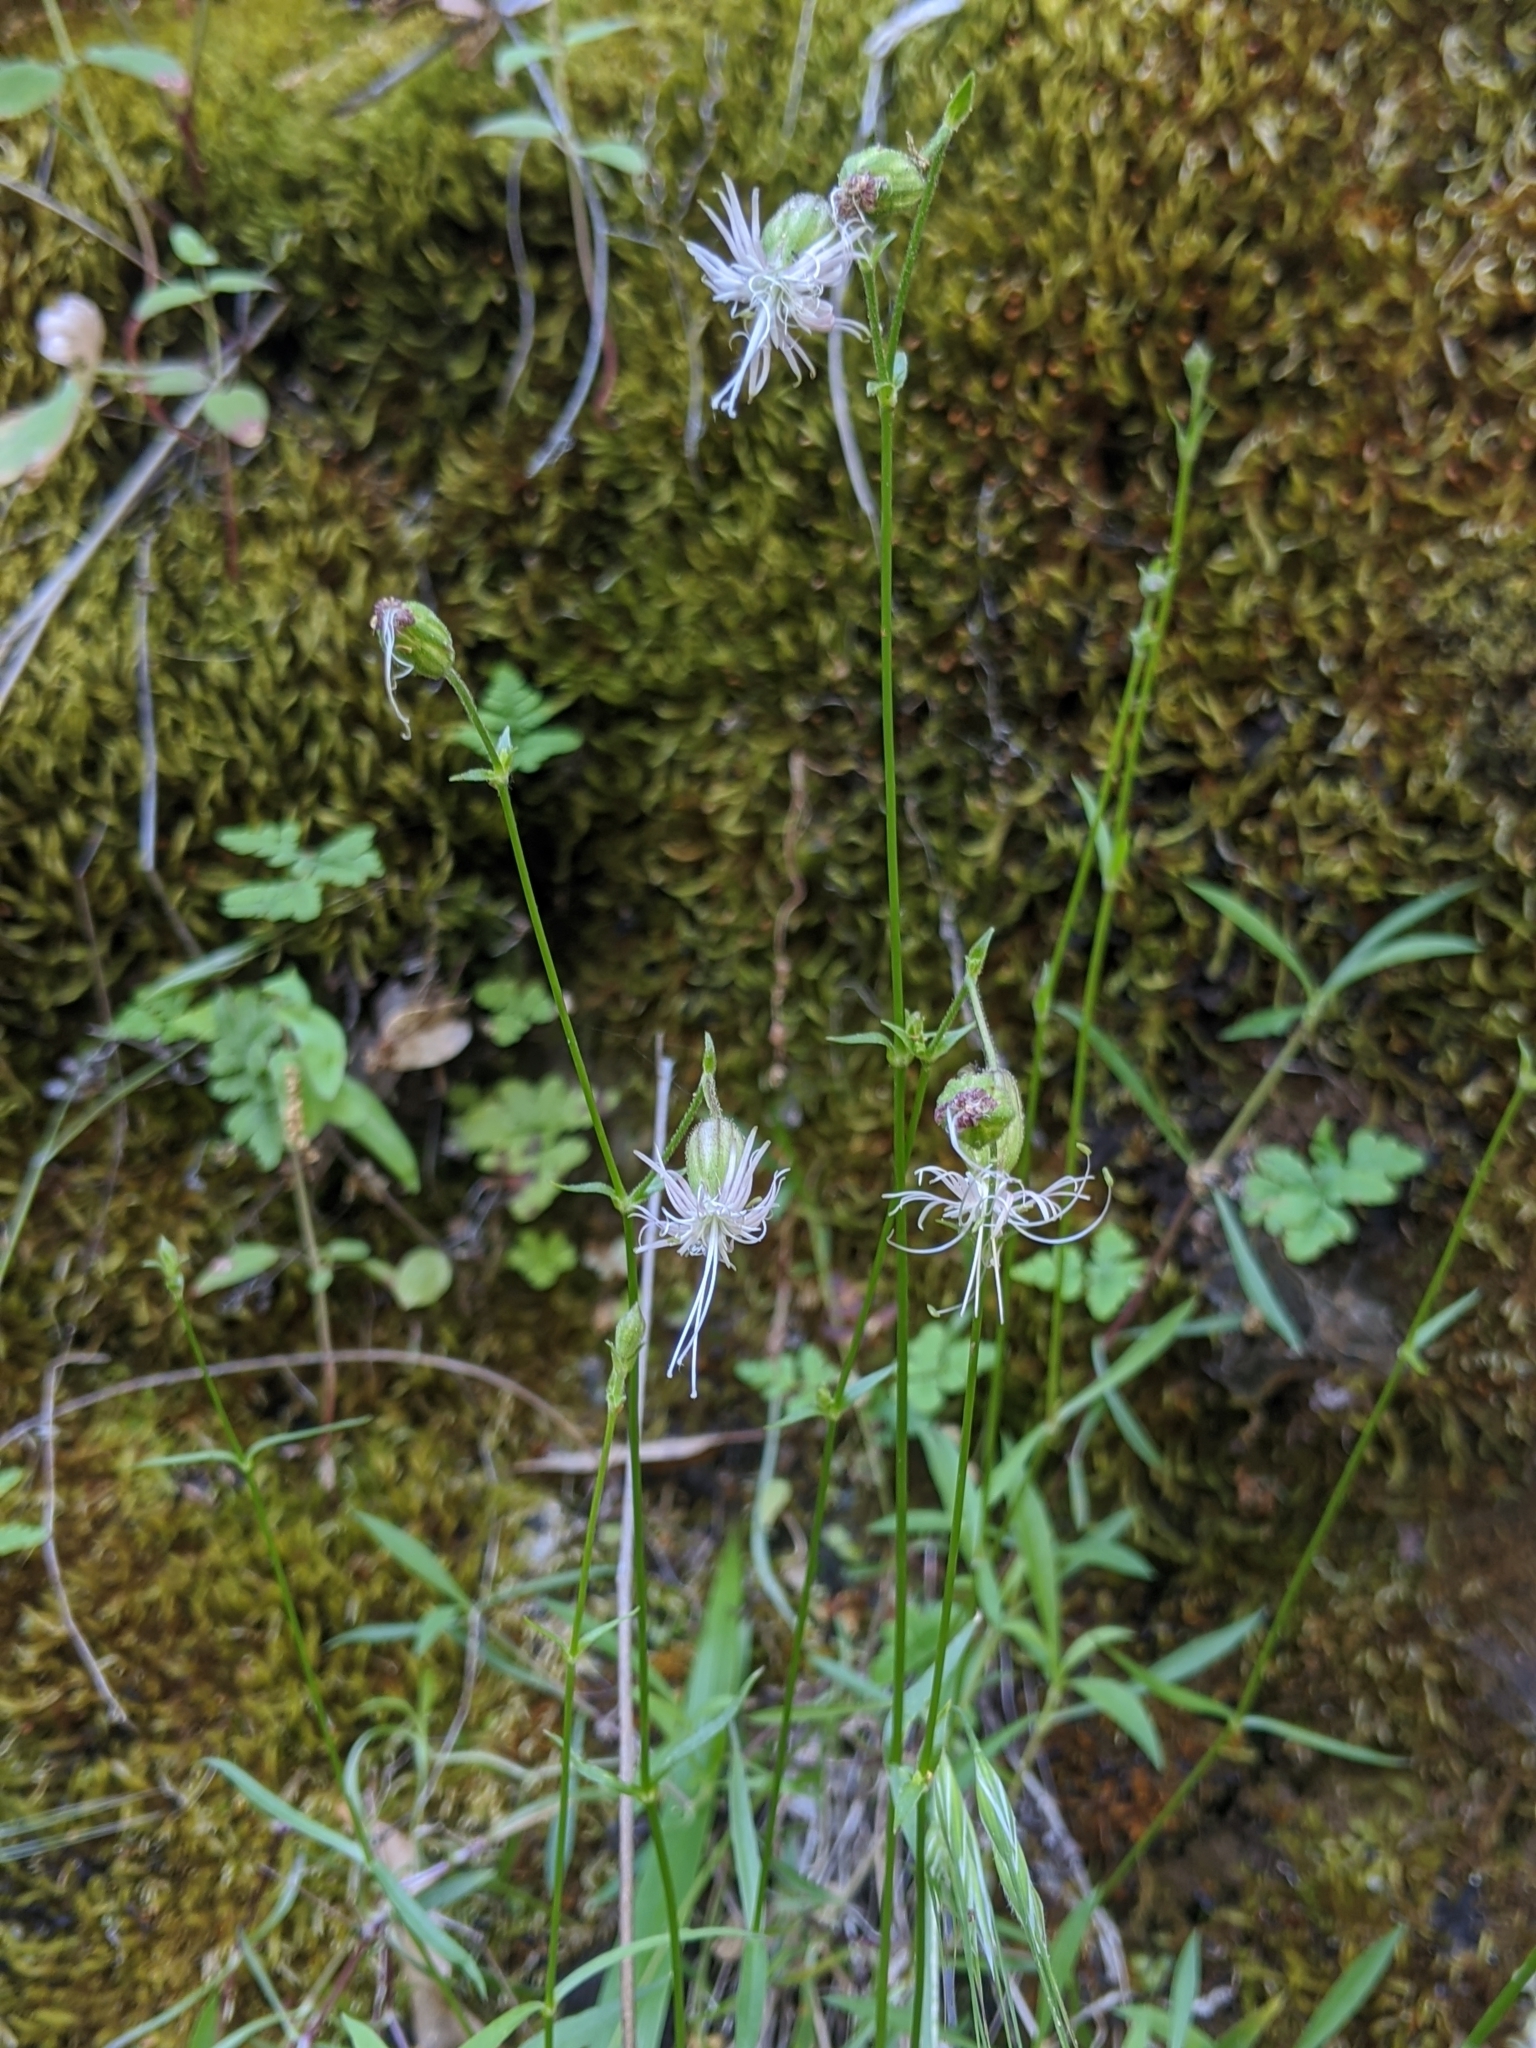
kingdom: Plantae
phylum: Tracheophyta
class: Magnoliopsida
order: Caryophyllales
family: Caryophyllaceae
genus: Silene
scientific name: Silene lemmonii
